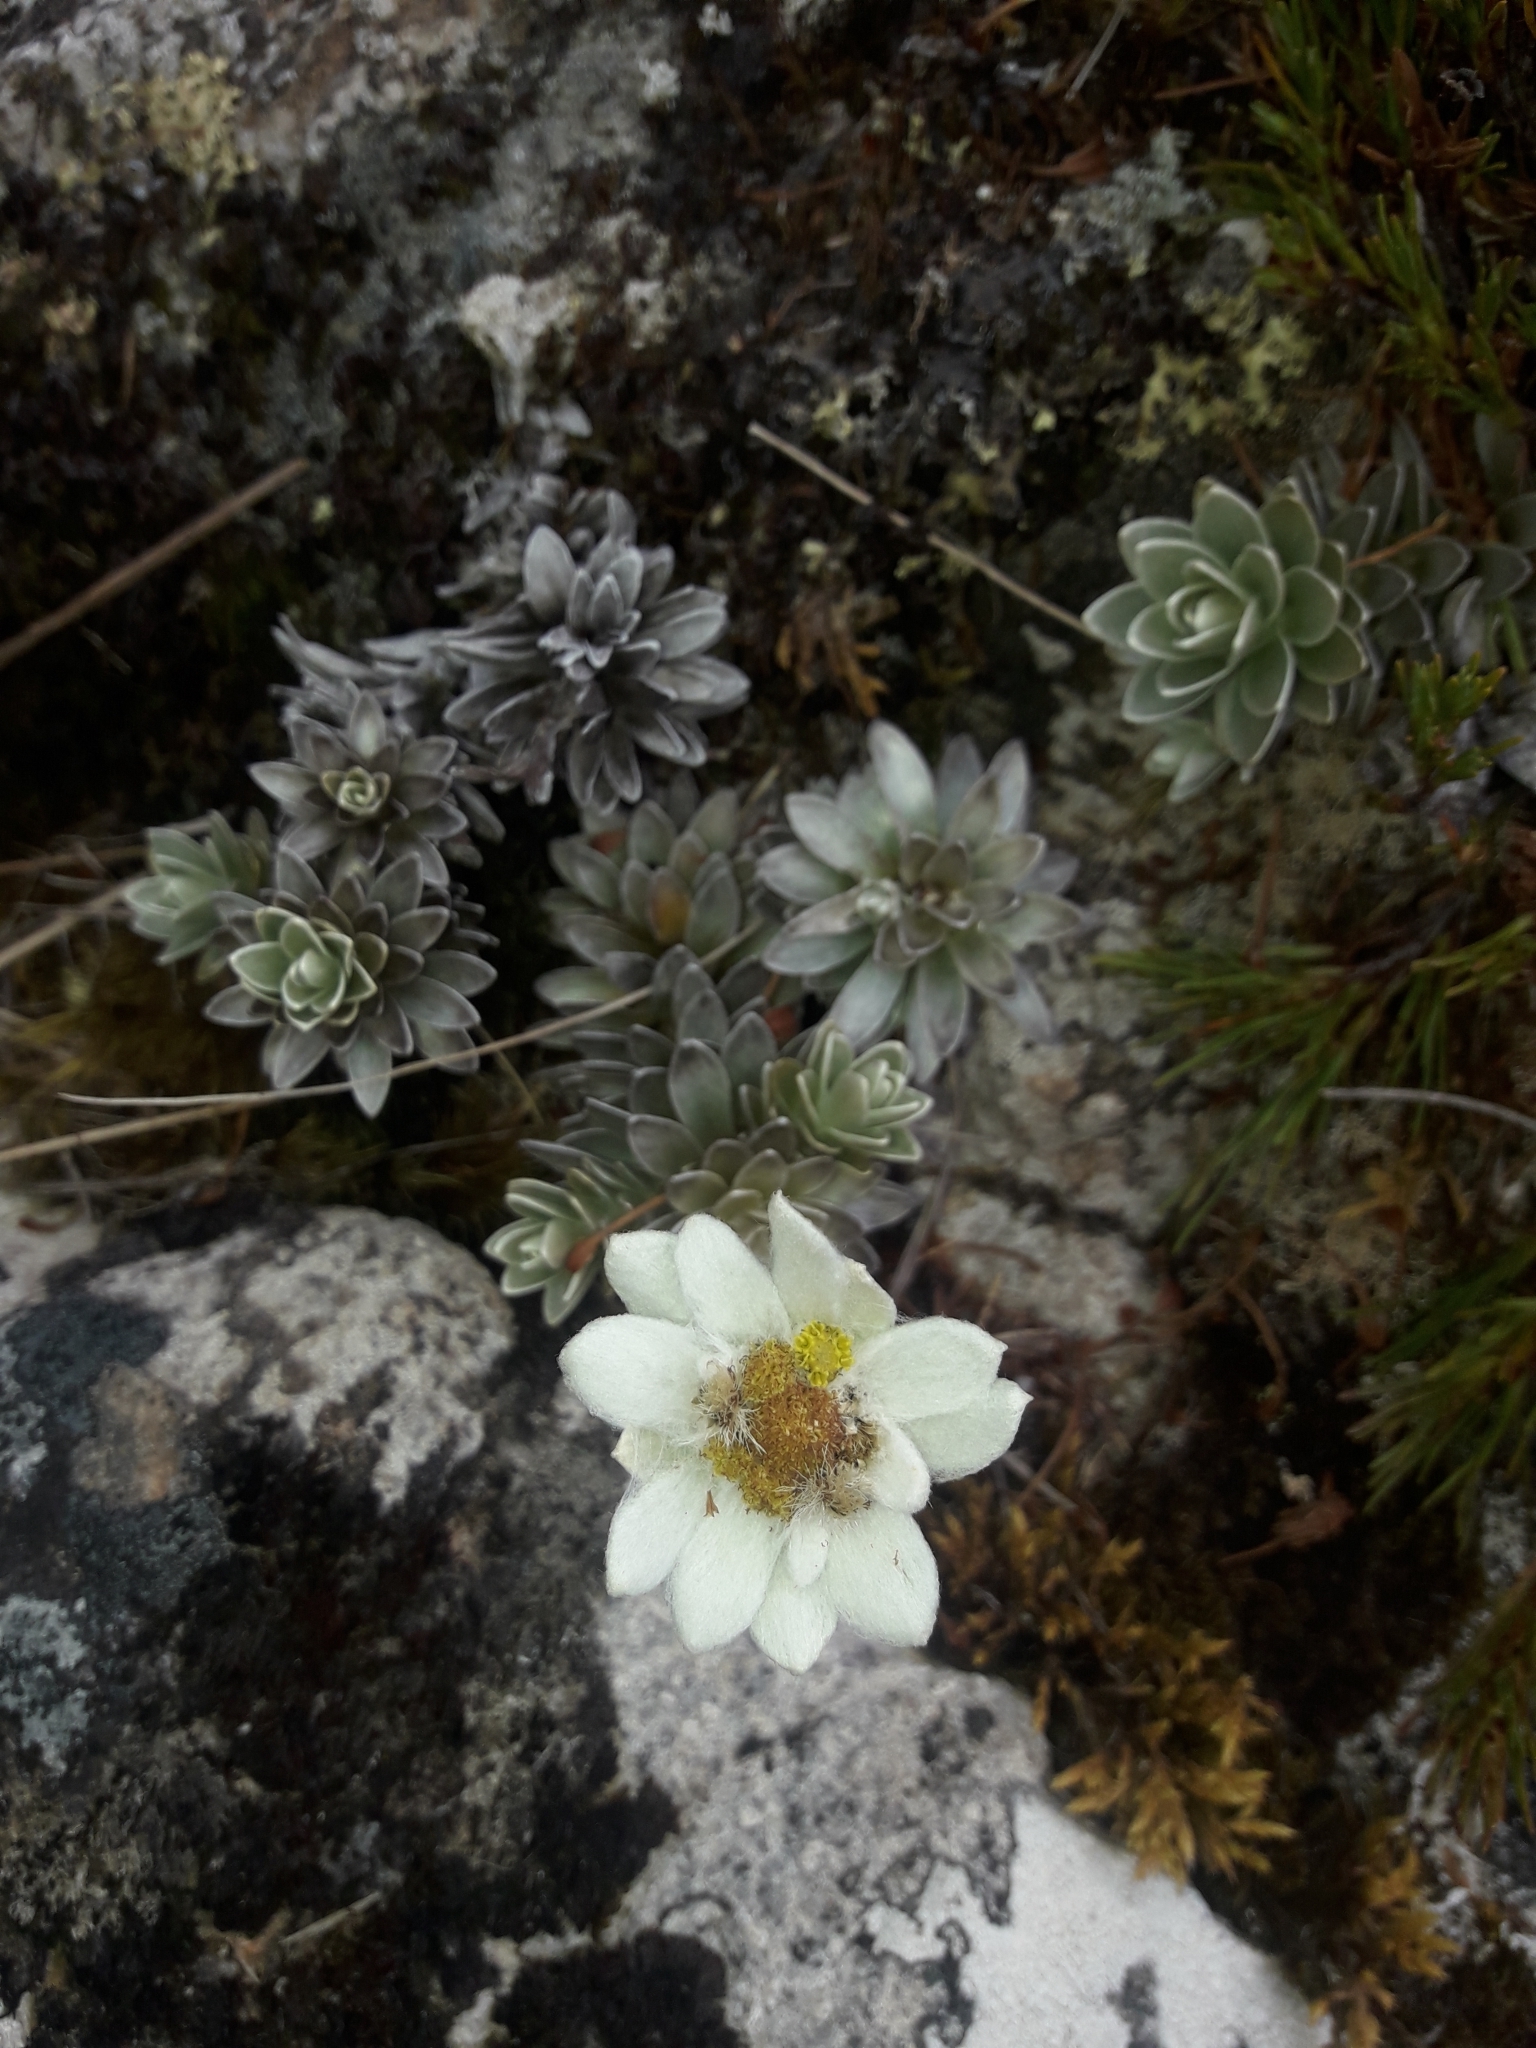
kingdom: Plantae
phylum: Tracheophyta
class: Magnoliopsida
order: Asterales
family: Asteraceae
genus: Leucogenes
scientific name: Leucogenes leontopodium
